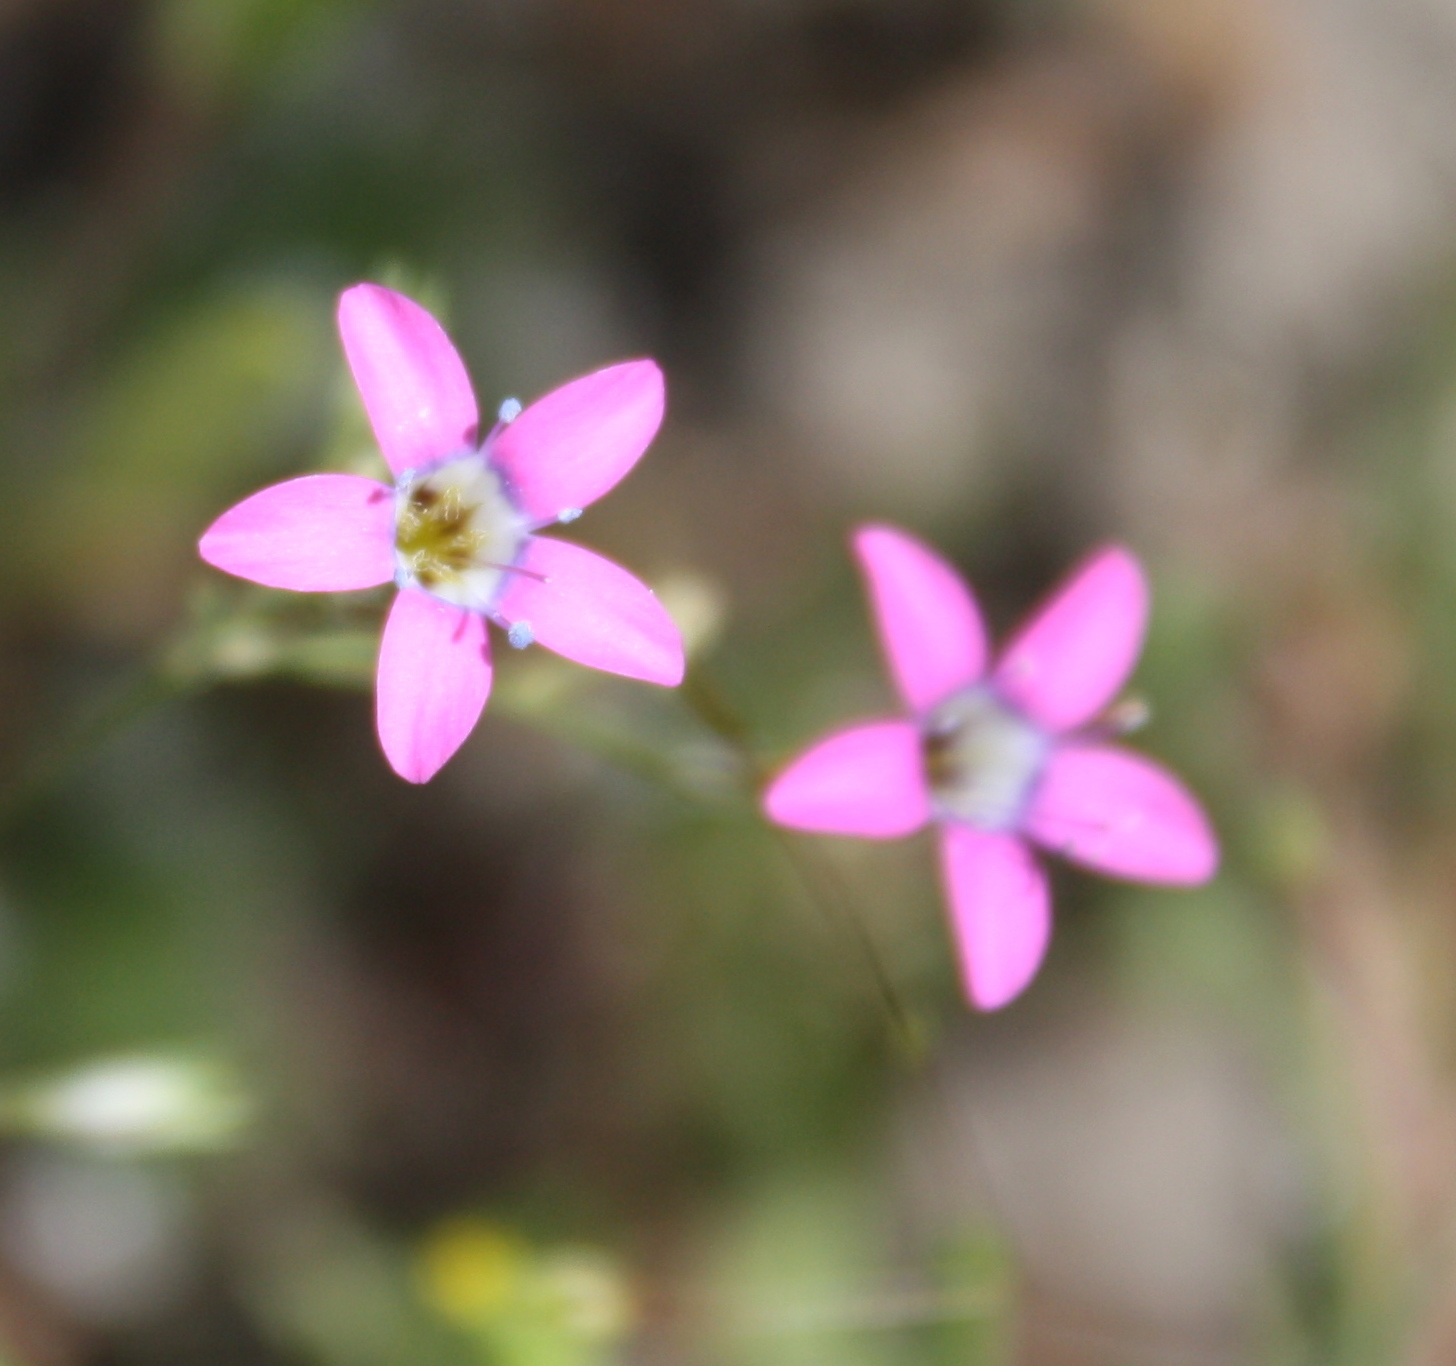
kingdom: Plantae
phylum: Tracheophyta
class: Magnoliopsida
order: Ericales
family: Polemoniaceae
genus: Navarretia
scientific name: Navarretia leptalea
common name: Bridges' pincushionplant
